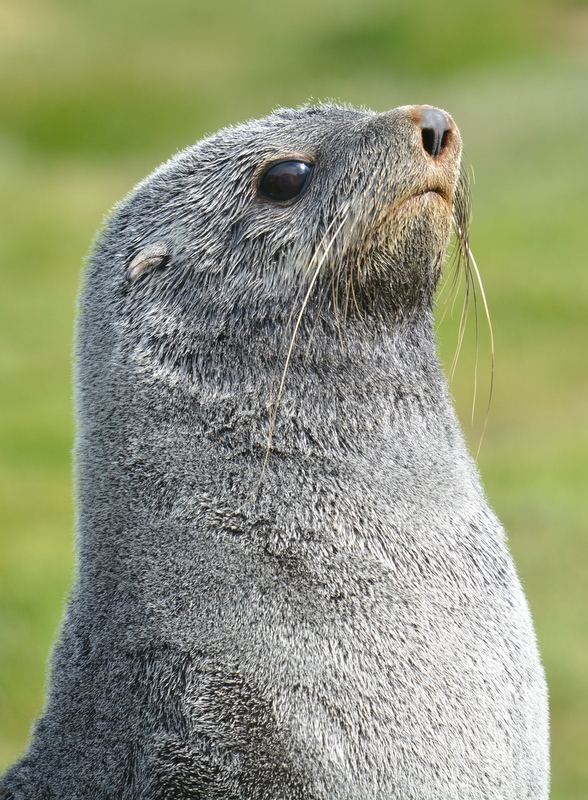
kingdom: Animalia
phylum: Chordata
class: Mammalia
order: Carnivora
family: Otariidae
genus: Arctocephalus
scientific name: Arctocephalus gazella
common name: Antarctic fur seal
